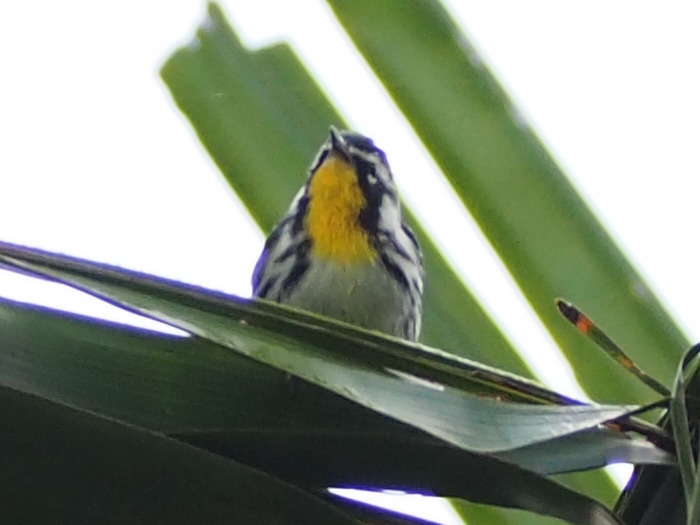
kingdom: Animalia
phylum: Chordata
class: Aves
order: Passeriformes
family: Parulidae
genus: Setophaga
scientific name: Setophaga dominica
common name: Yellow-throated warbler
